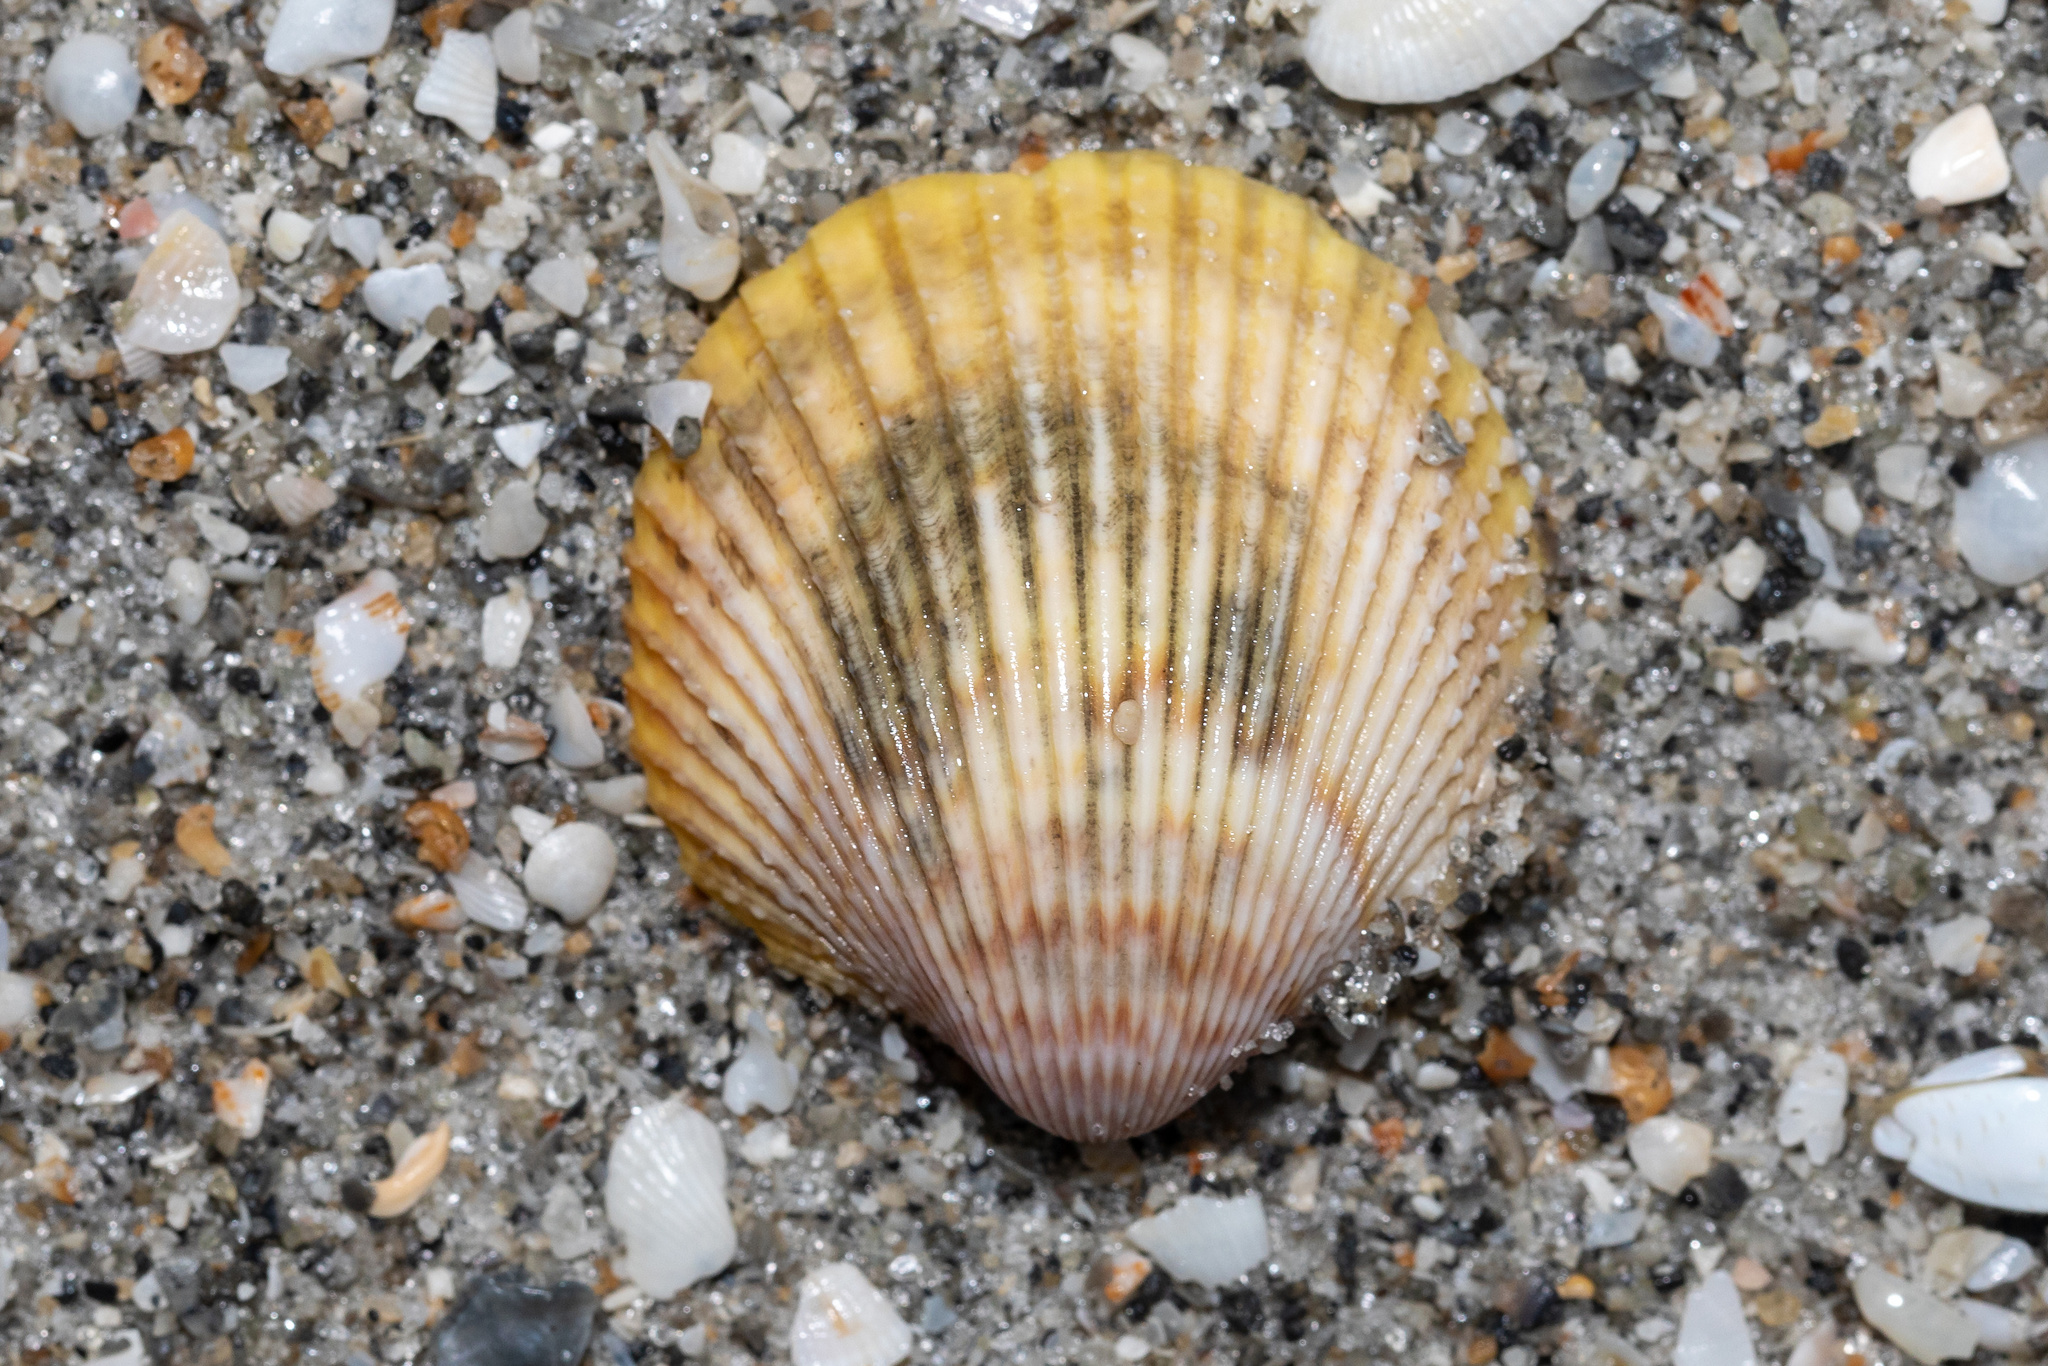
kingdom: Animalia
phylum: Mollusca
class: Bivalvia
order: Cardiida
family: Cardiidae
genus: Dallocardia
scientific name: Dallocardia muricata
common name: Yellow pricklycockle
